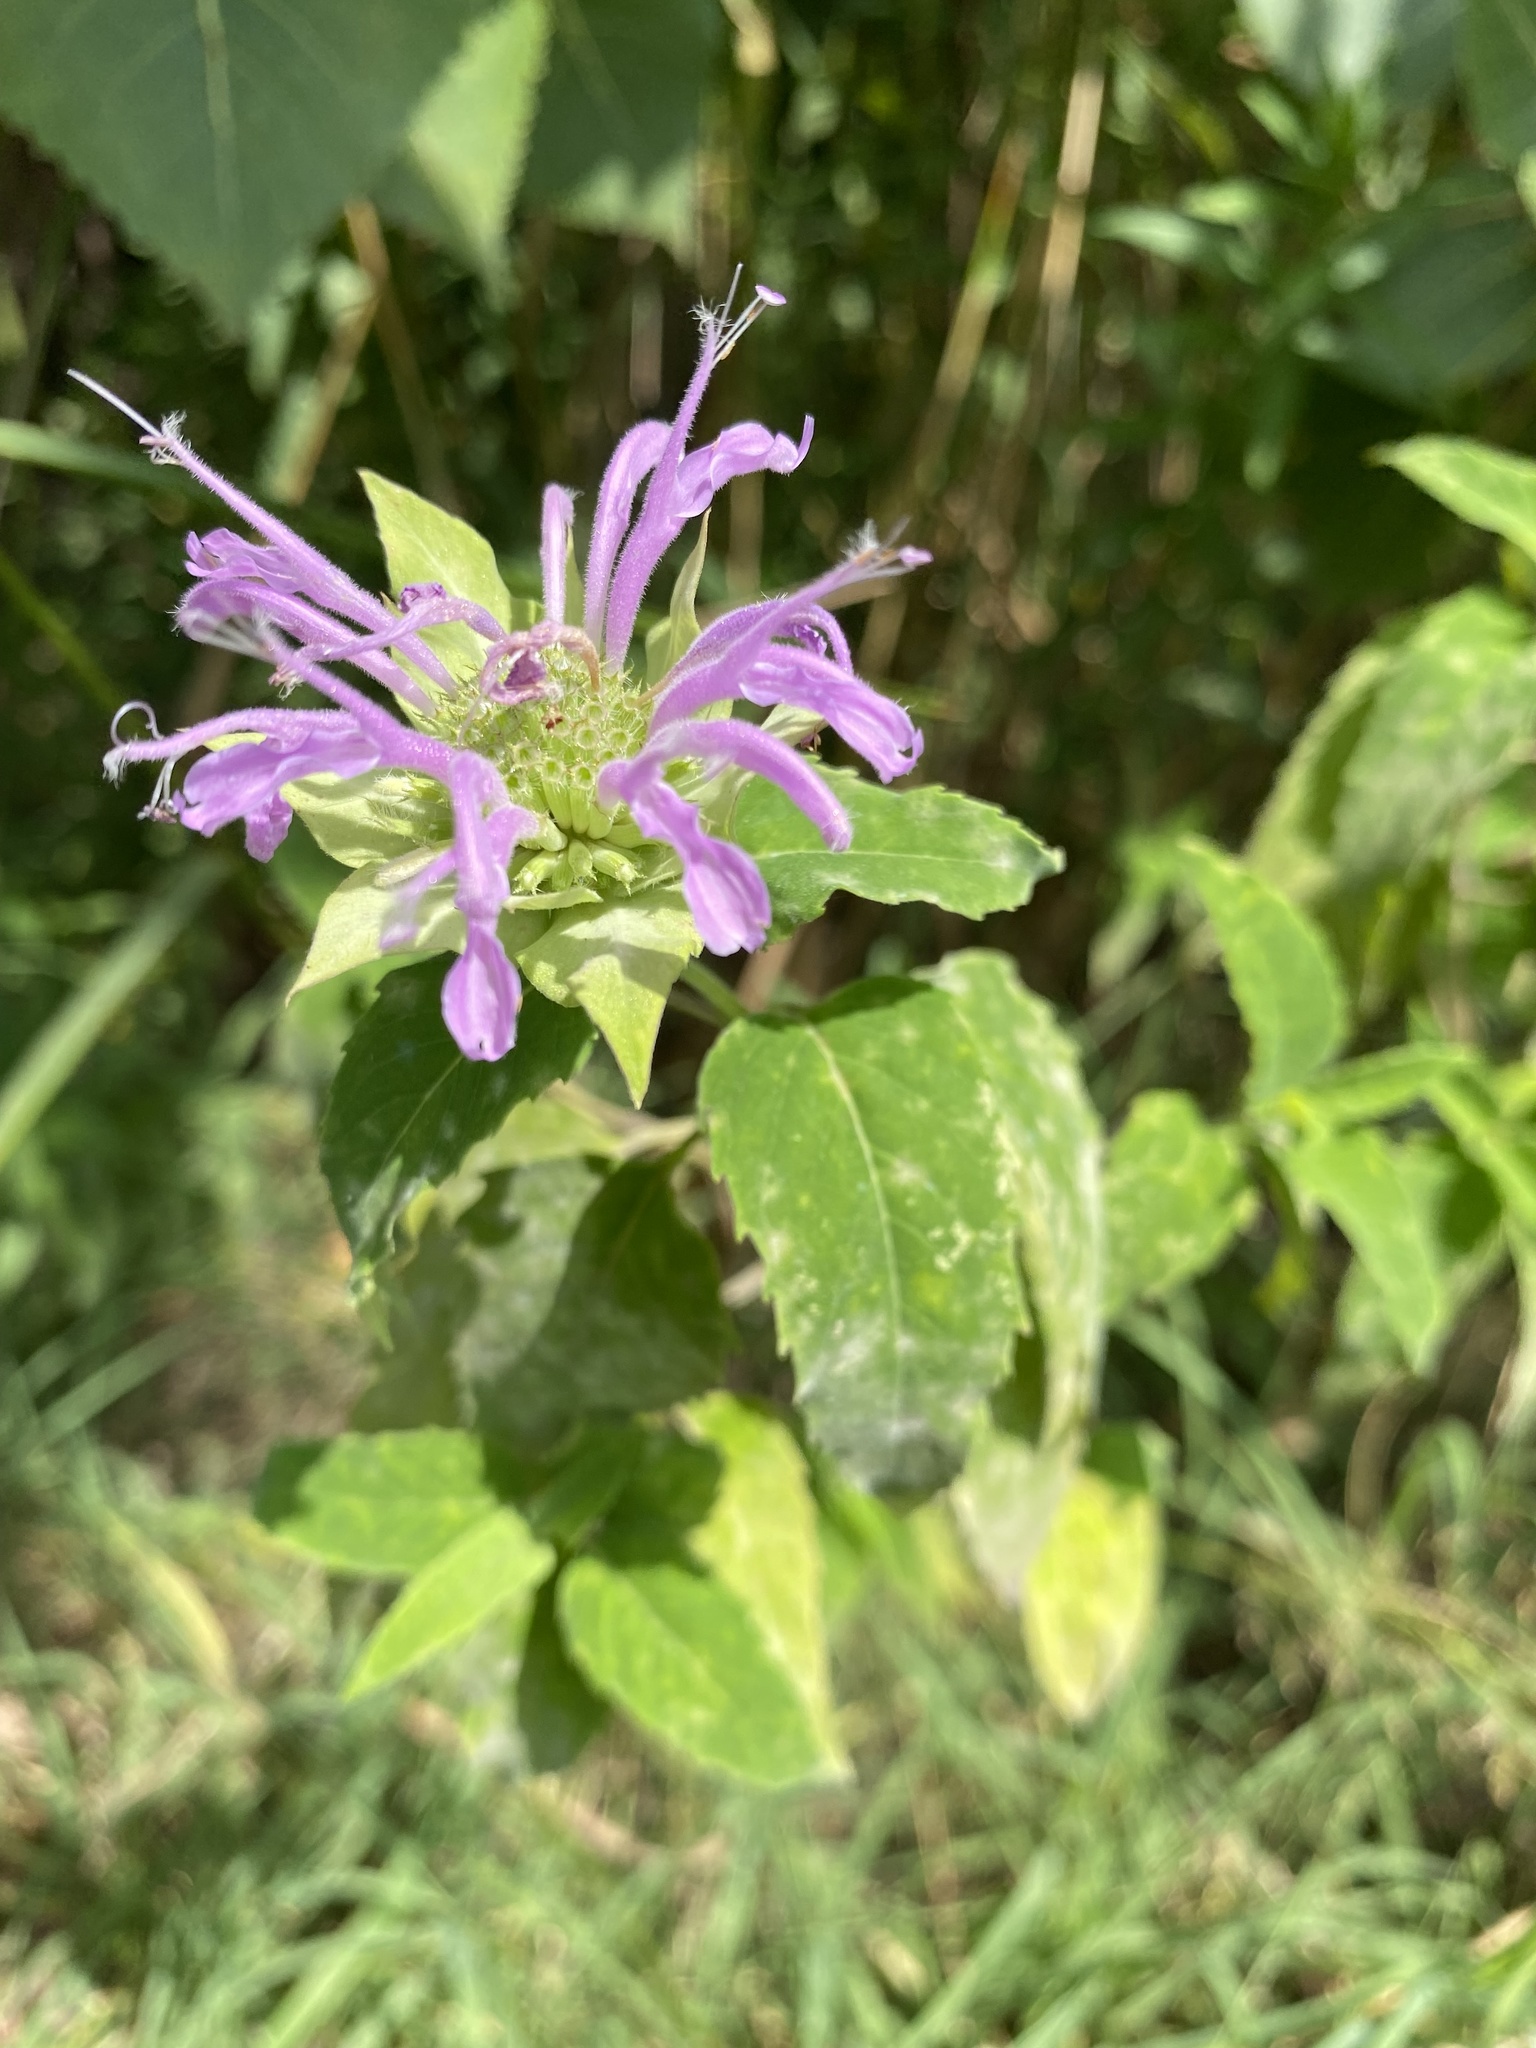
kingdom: Plantae
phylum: Tracheophyta
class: Magnoliopsida
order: Lamiales
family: Lamiaceae
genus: Monarda
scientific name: Monarda fistulosa
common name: Purple beebalm
